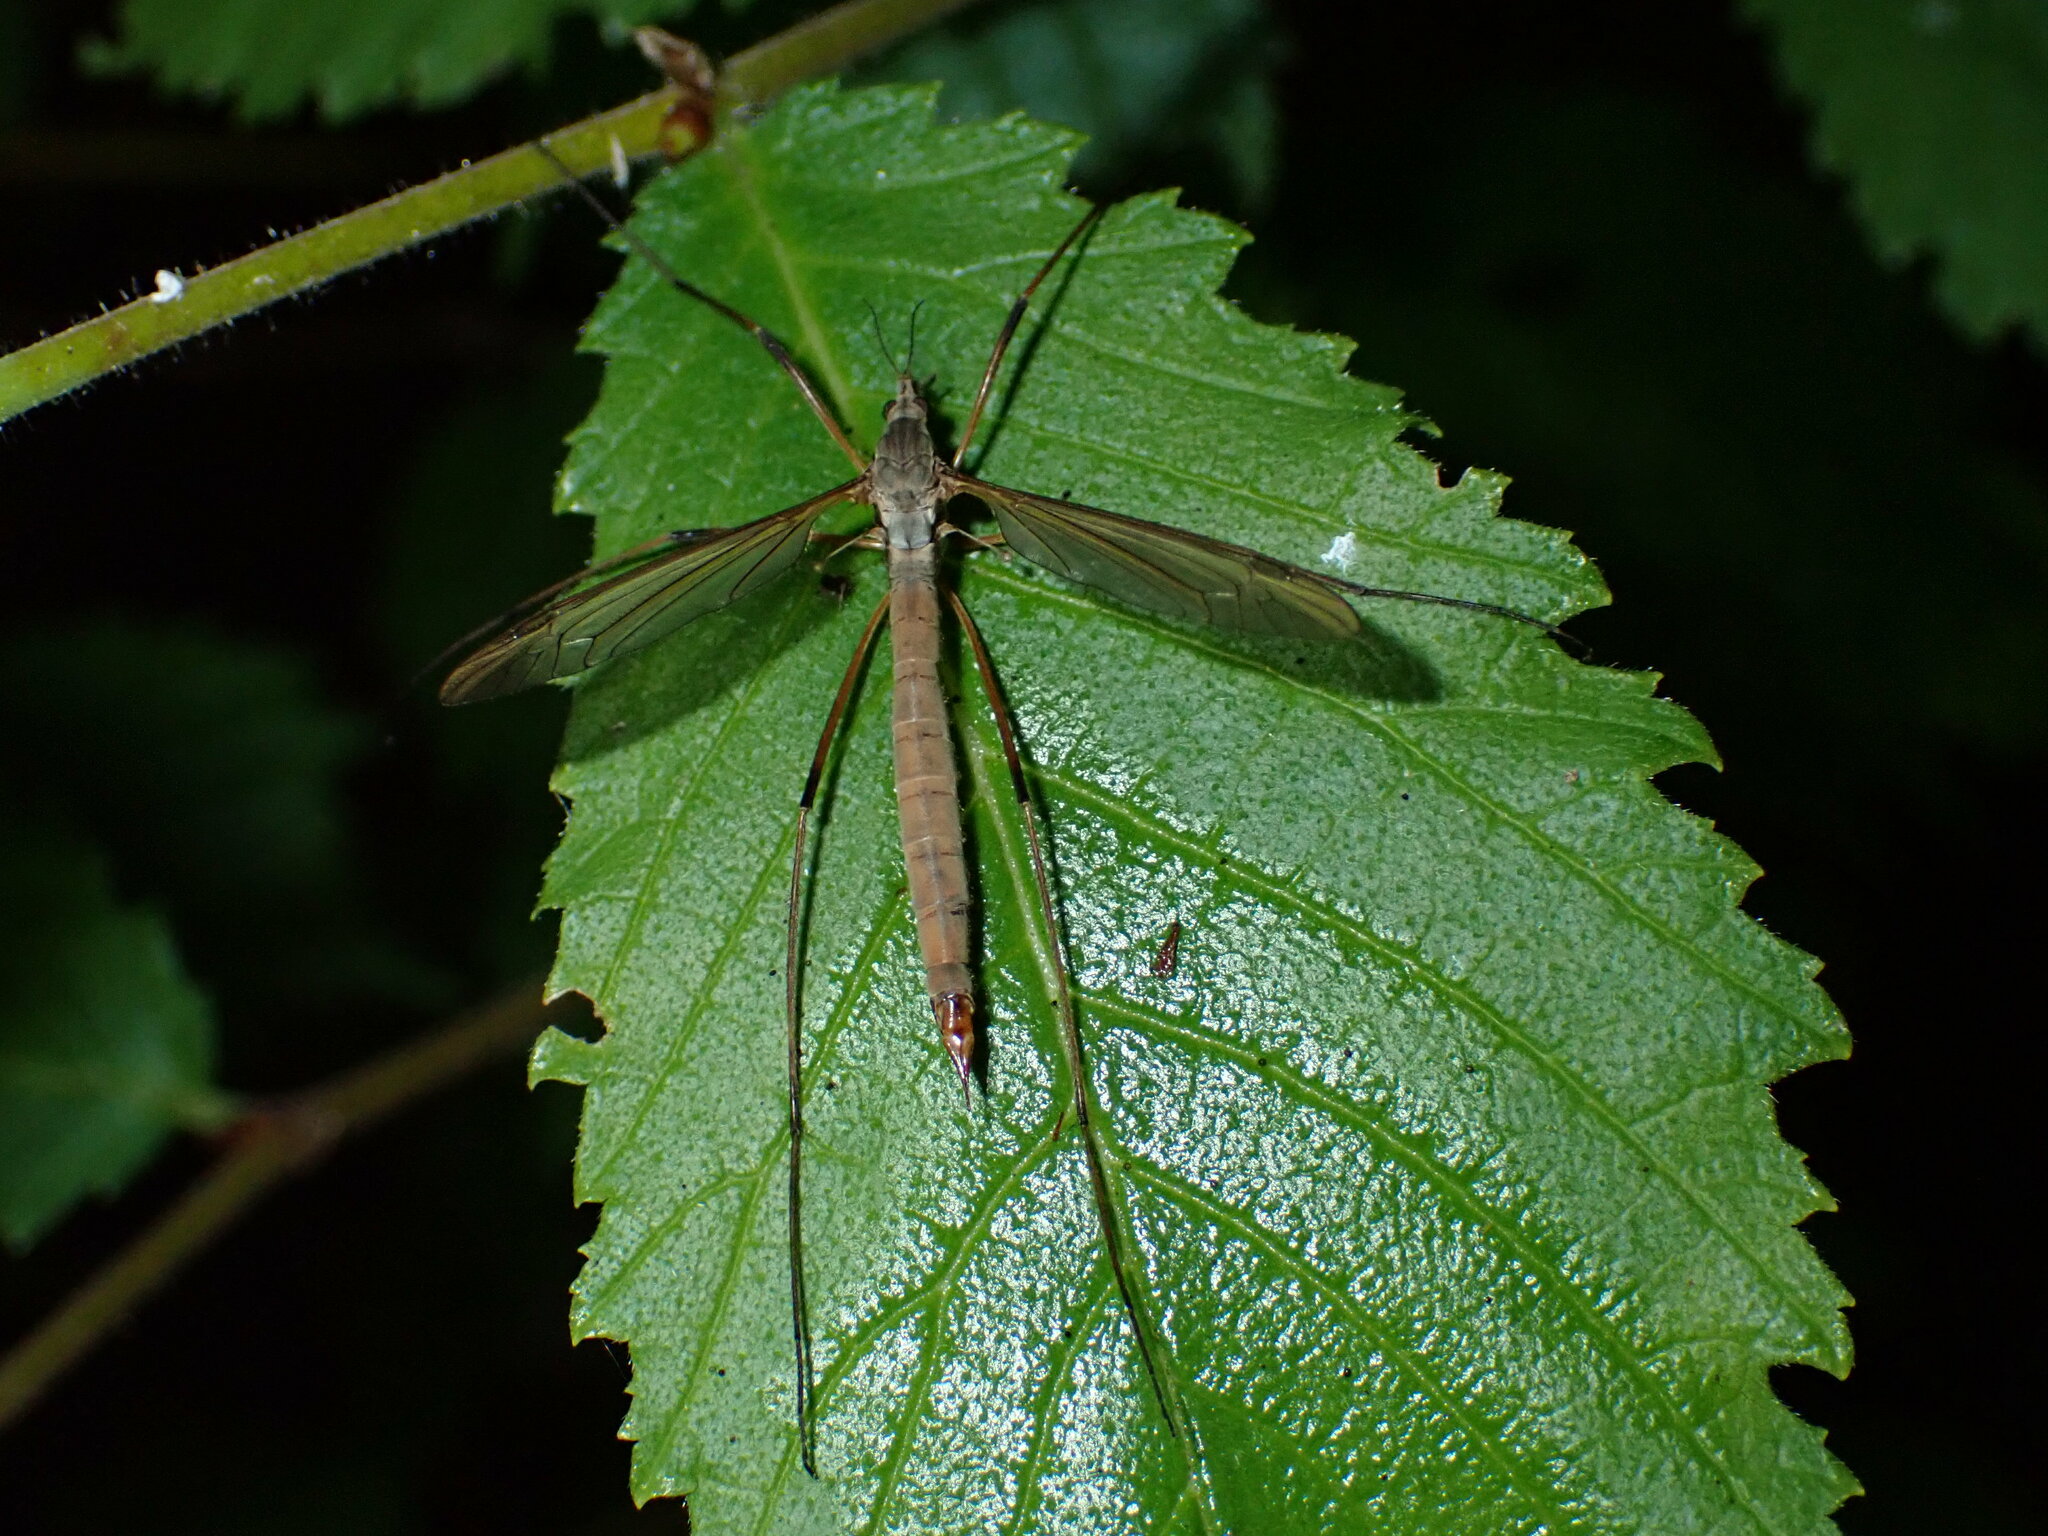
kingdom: Animalia
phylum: Arthropoda
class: Insecta
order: Diptera
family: Tipulidae
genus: Tipula
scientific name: Tipula paludosa
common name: European cranefly
